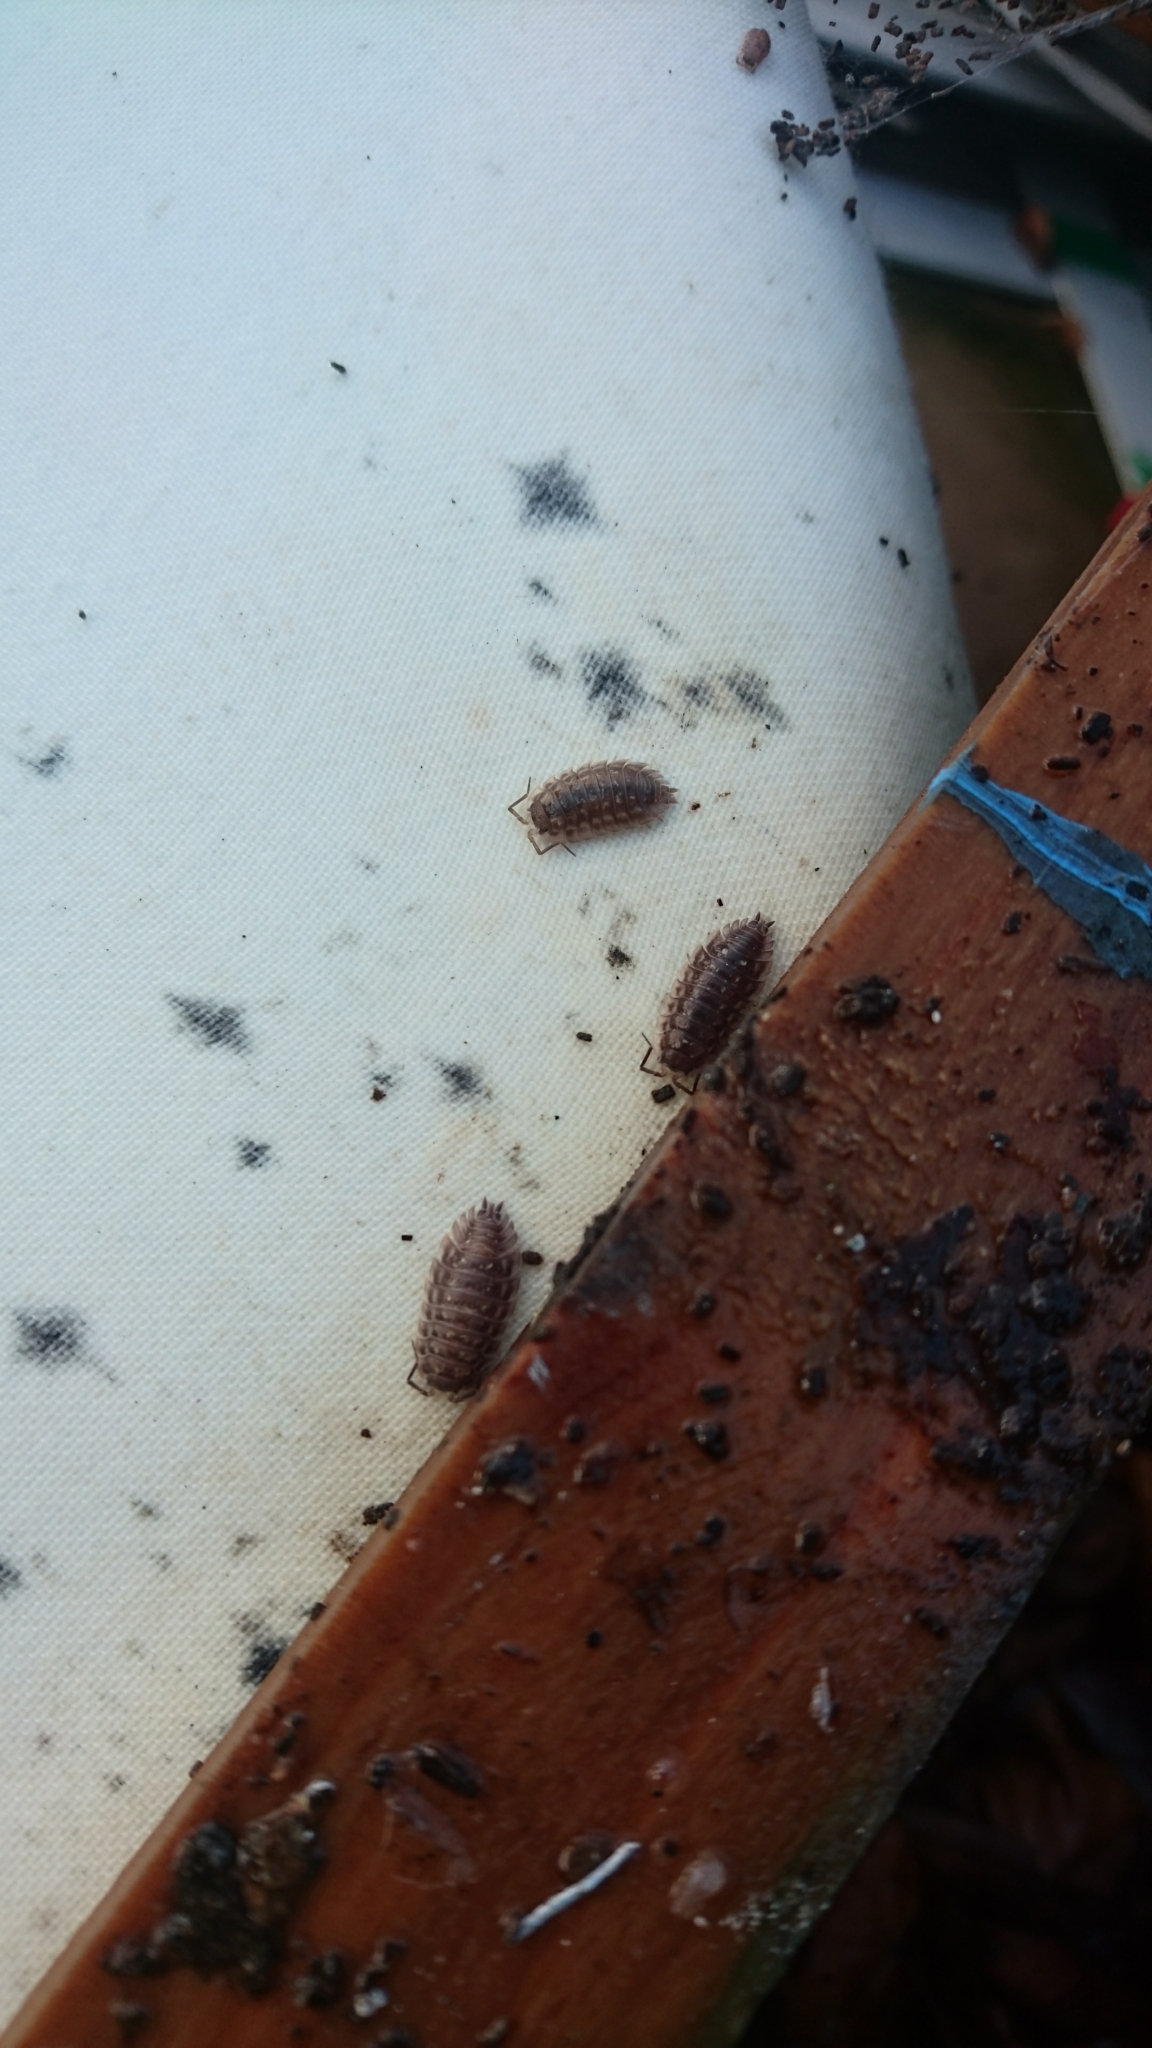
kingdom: Animalia
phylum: Arthropoda
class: Malacostraca
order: Isopoda
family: Oniscidae
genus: Oniscus
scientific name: Oniscus asellus
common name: Common shiny woodlouse
